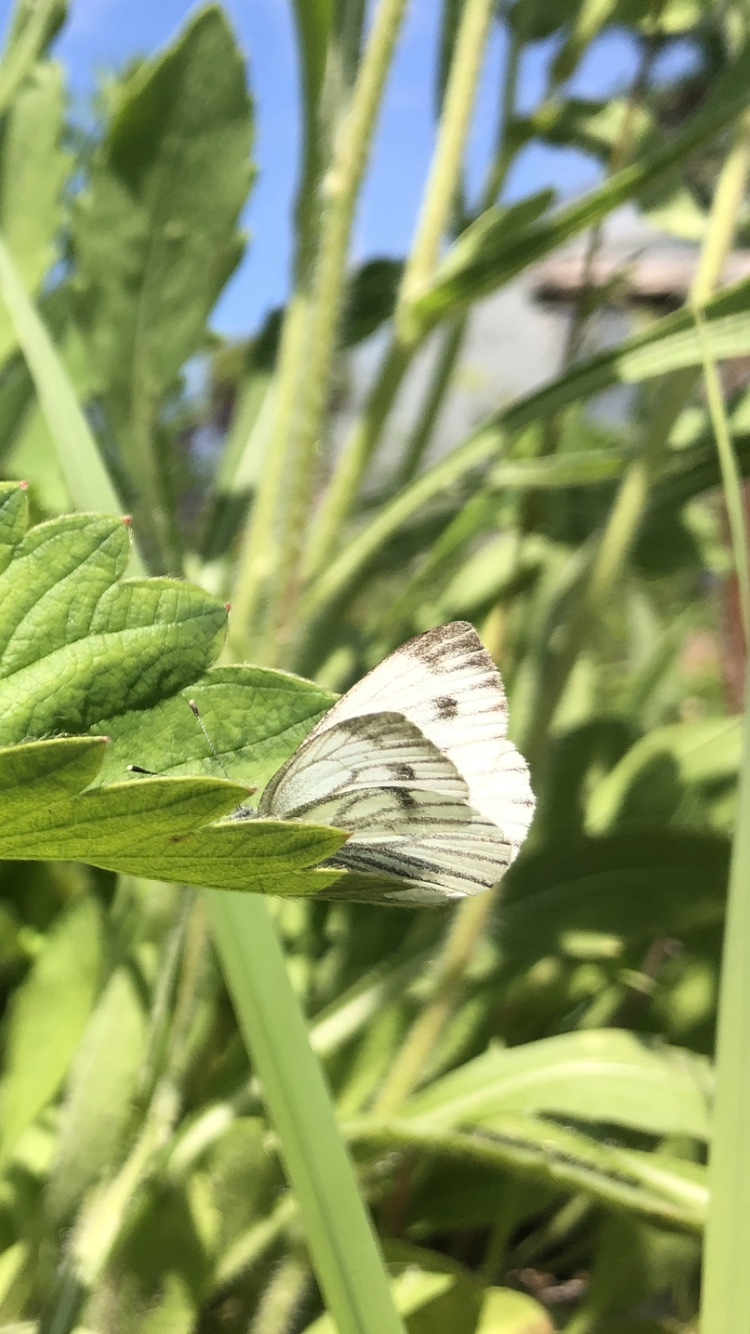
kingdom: Animalia
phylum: Arthropoda
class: Insecta
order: Lepidoptera
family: Pieridae
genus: Pieris
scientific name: Pieris napi
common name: Green-veined white
